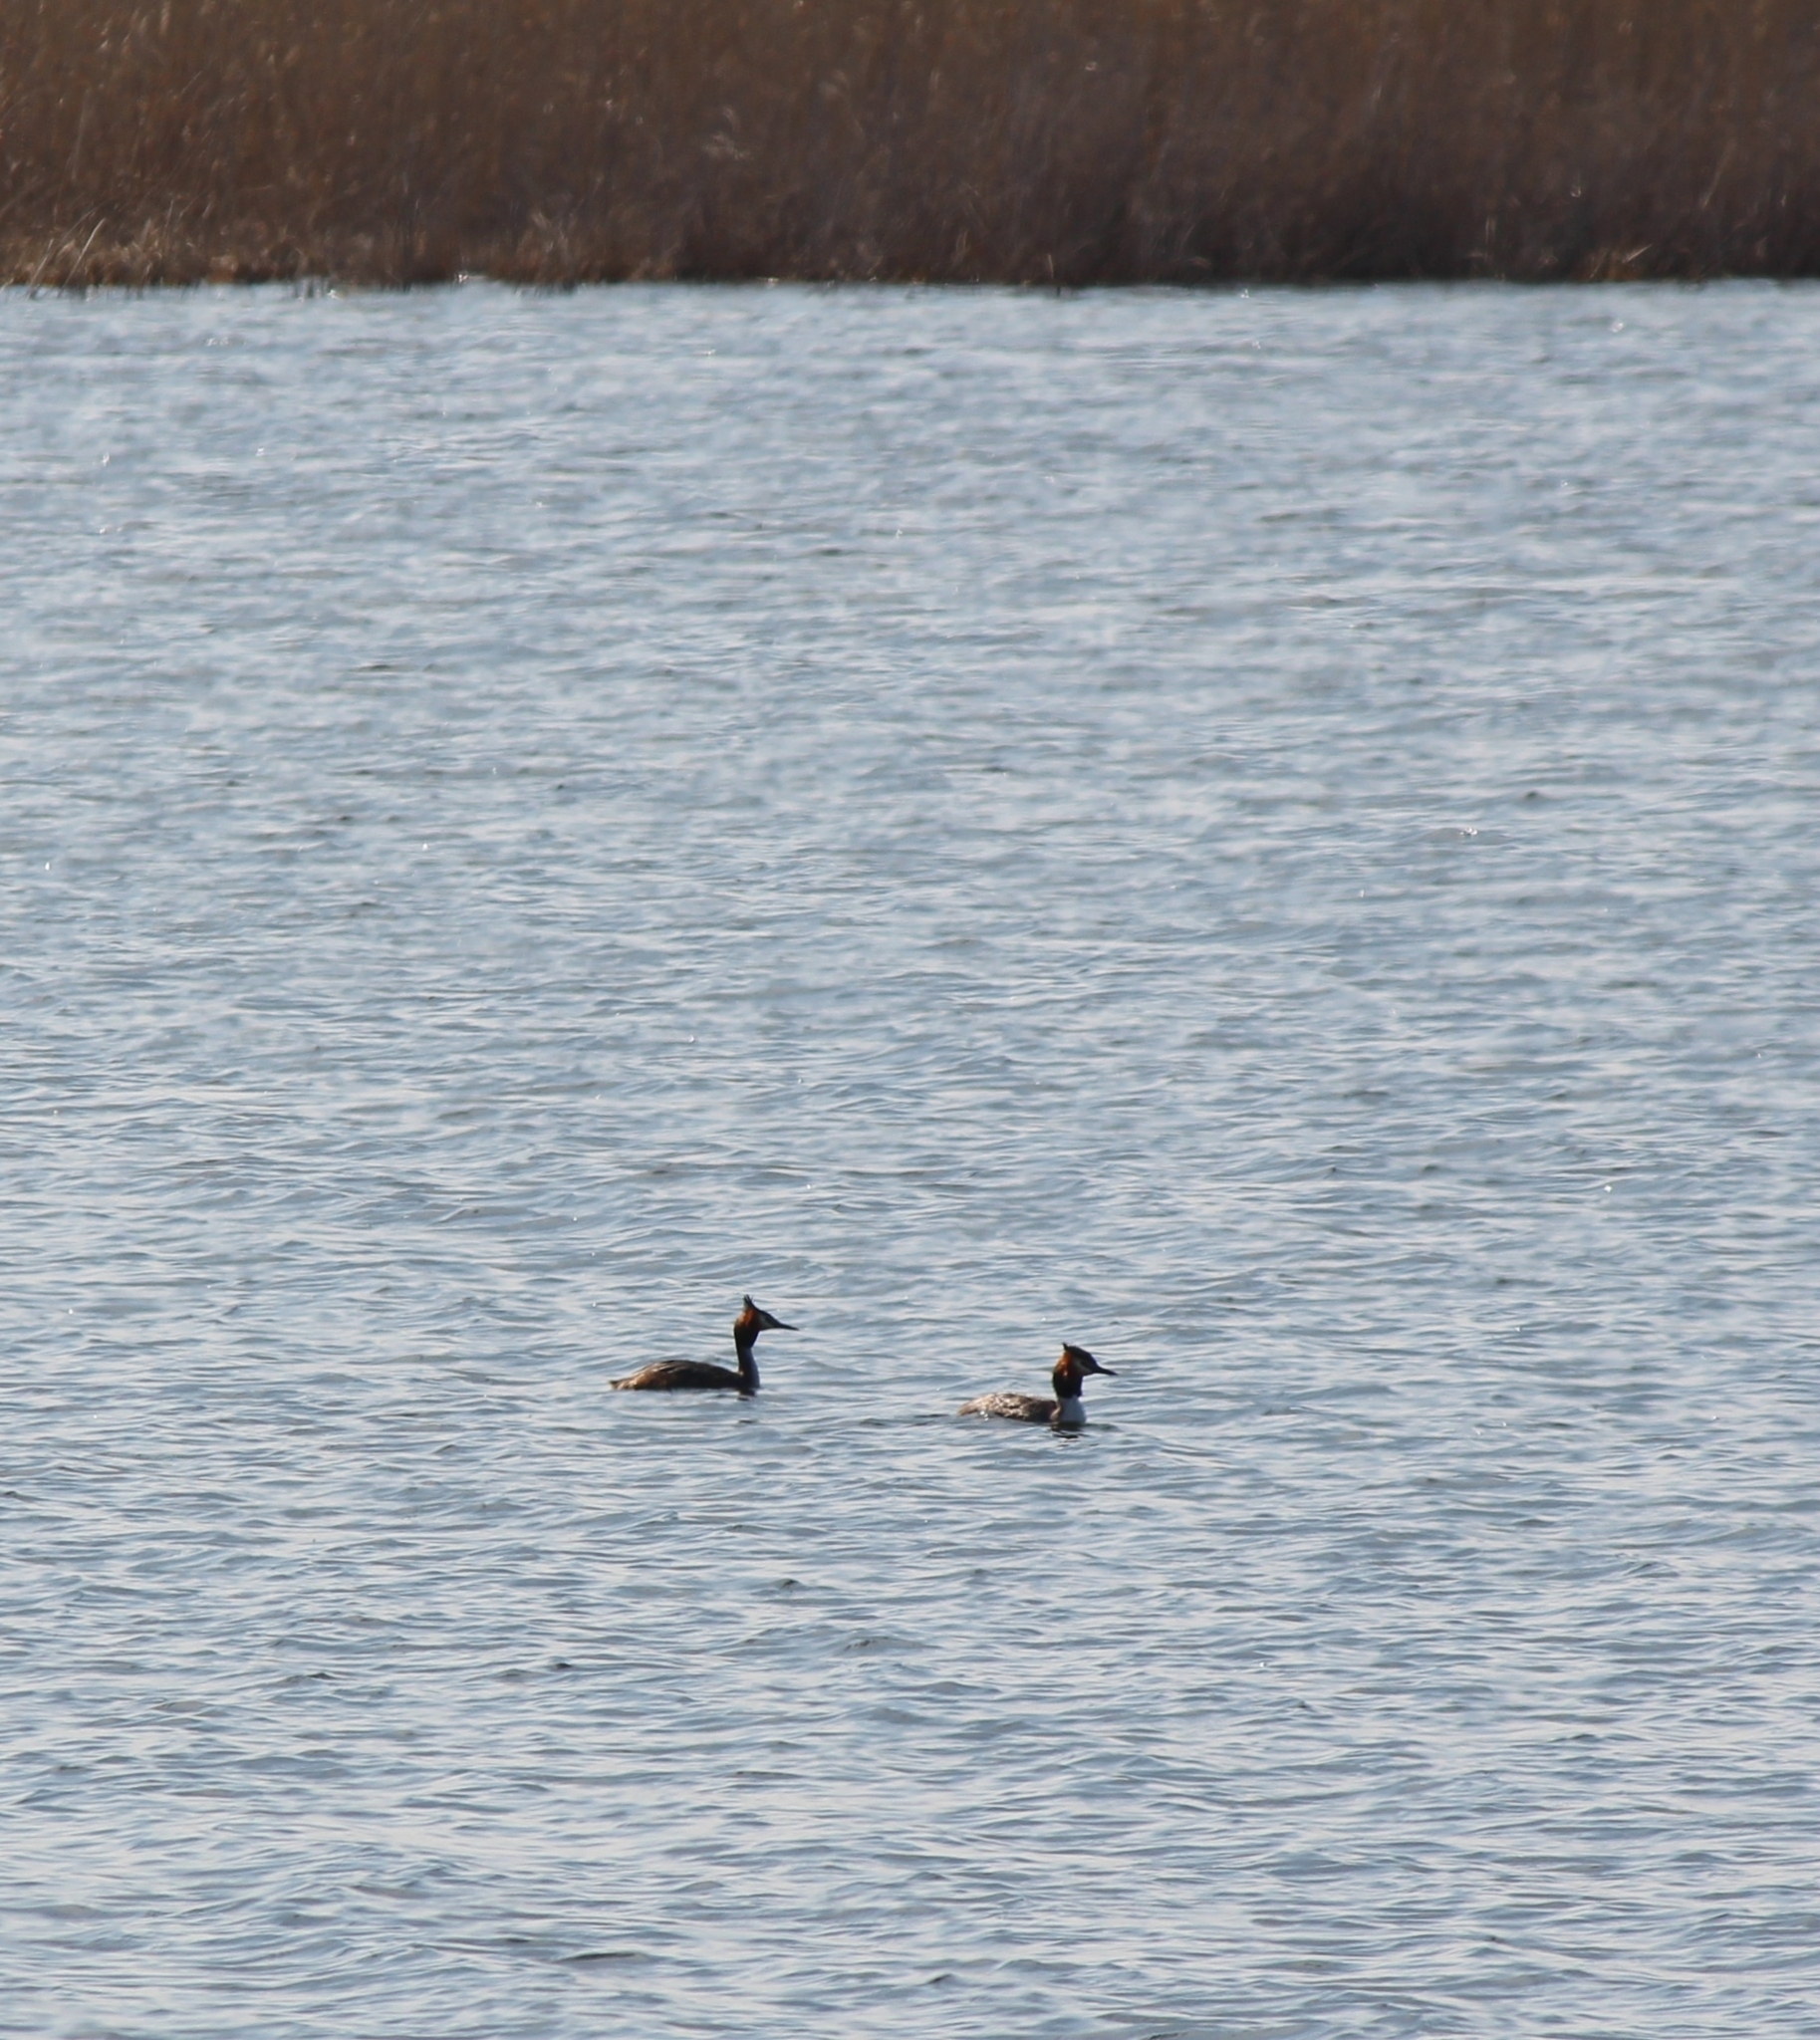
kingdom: Animalia
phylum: Chordata
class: Aves
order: Podicipediformes
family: Podicipedidae
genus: Podiceps
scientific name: Podiceps cristatus
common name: Great crested grebe
